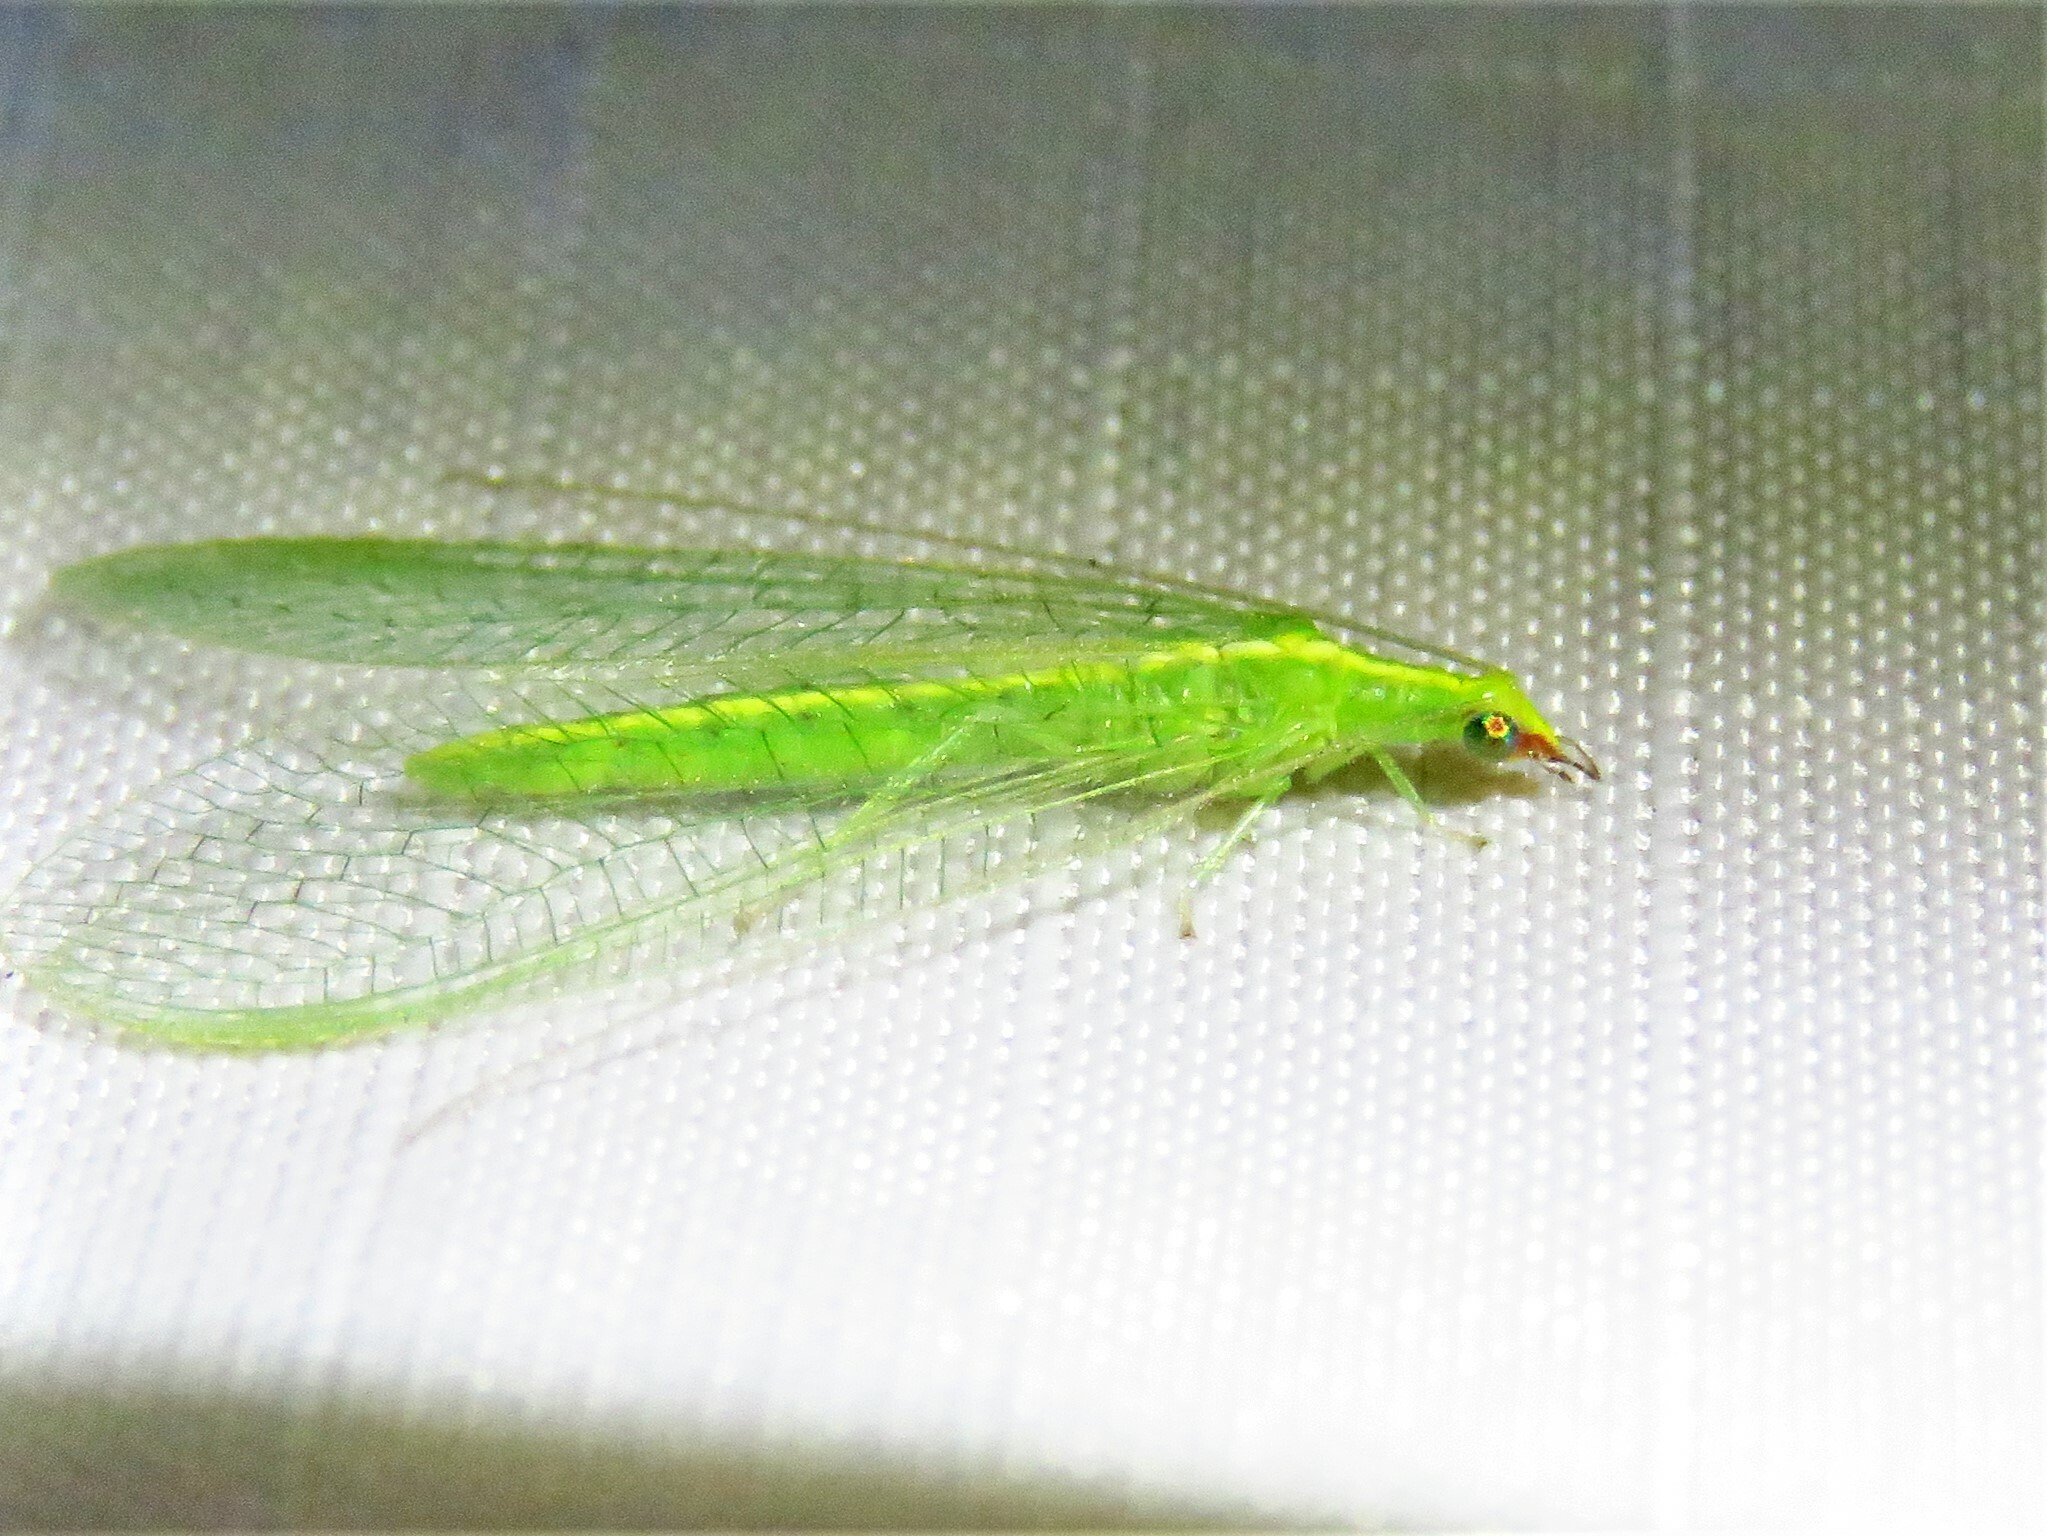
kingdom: Animalia
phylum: Arthropoda
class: Insecta
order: Neuroptera
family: Chrysopidae
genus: Chrysoperla
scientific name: Chrysoperla rufilabris
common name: Red-lipped green lacewing
